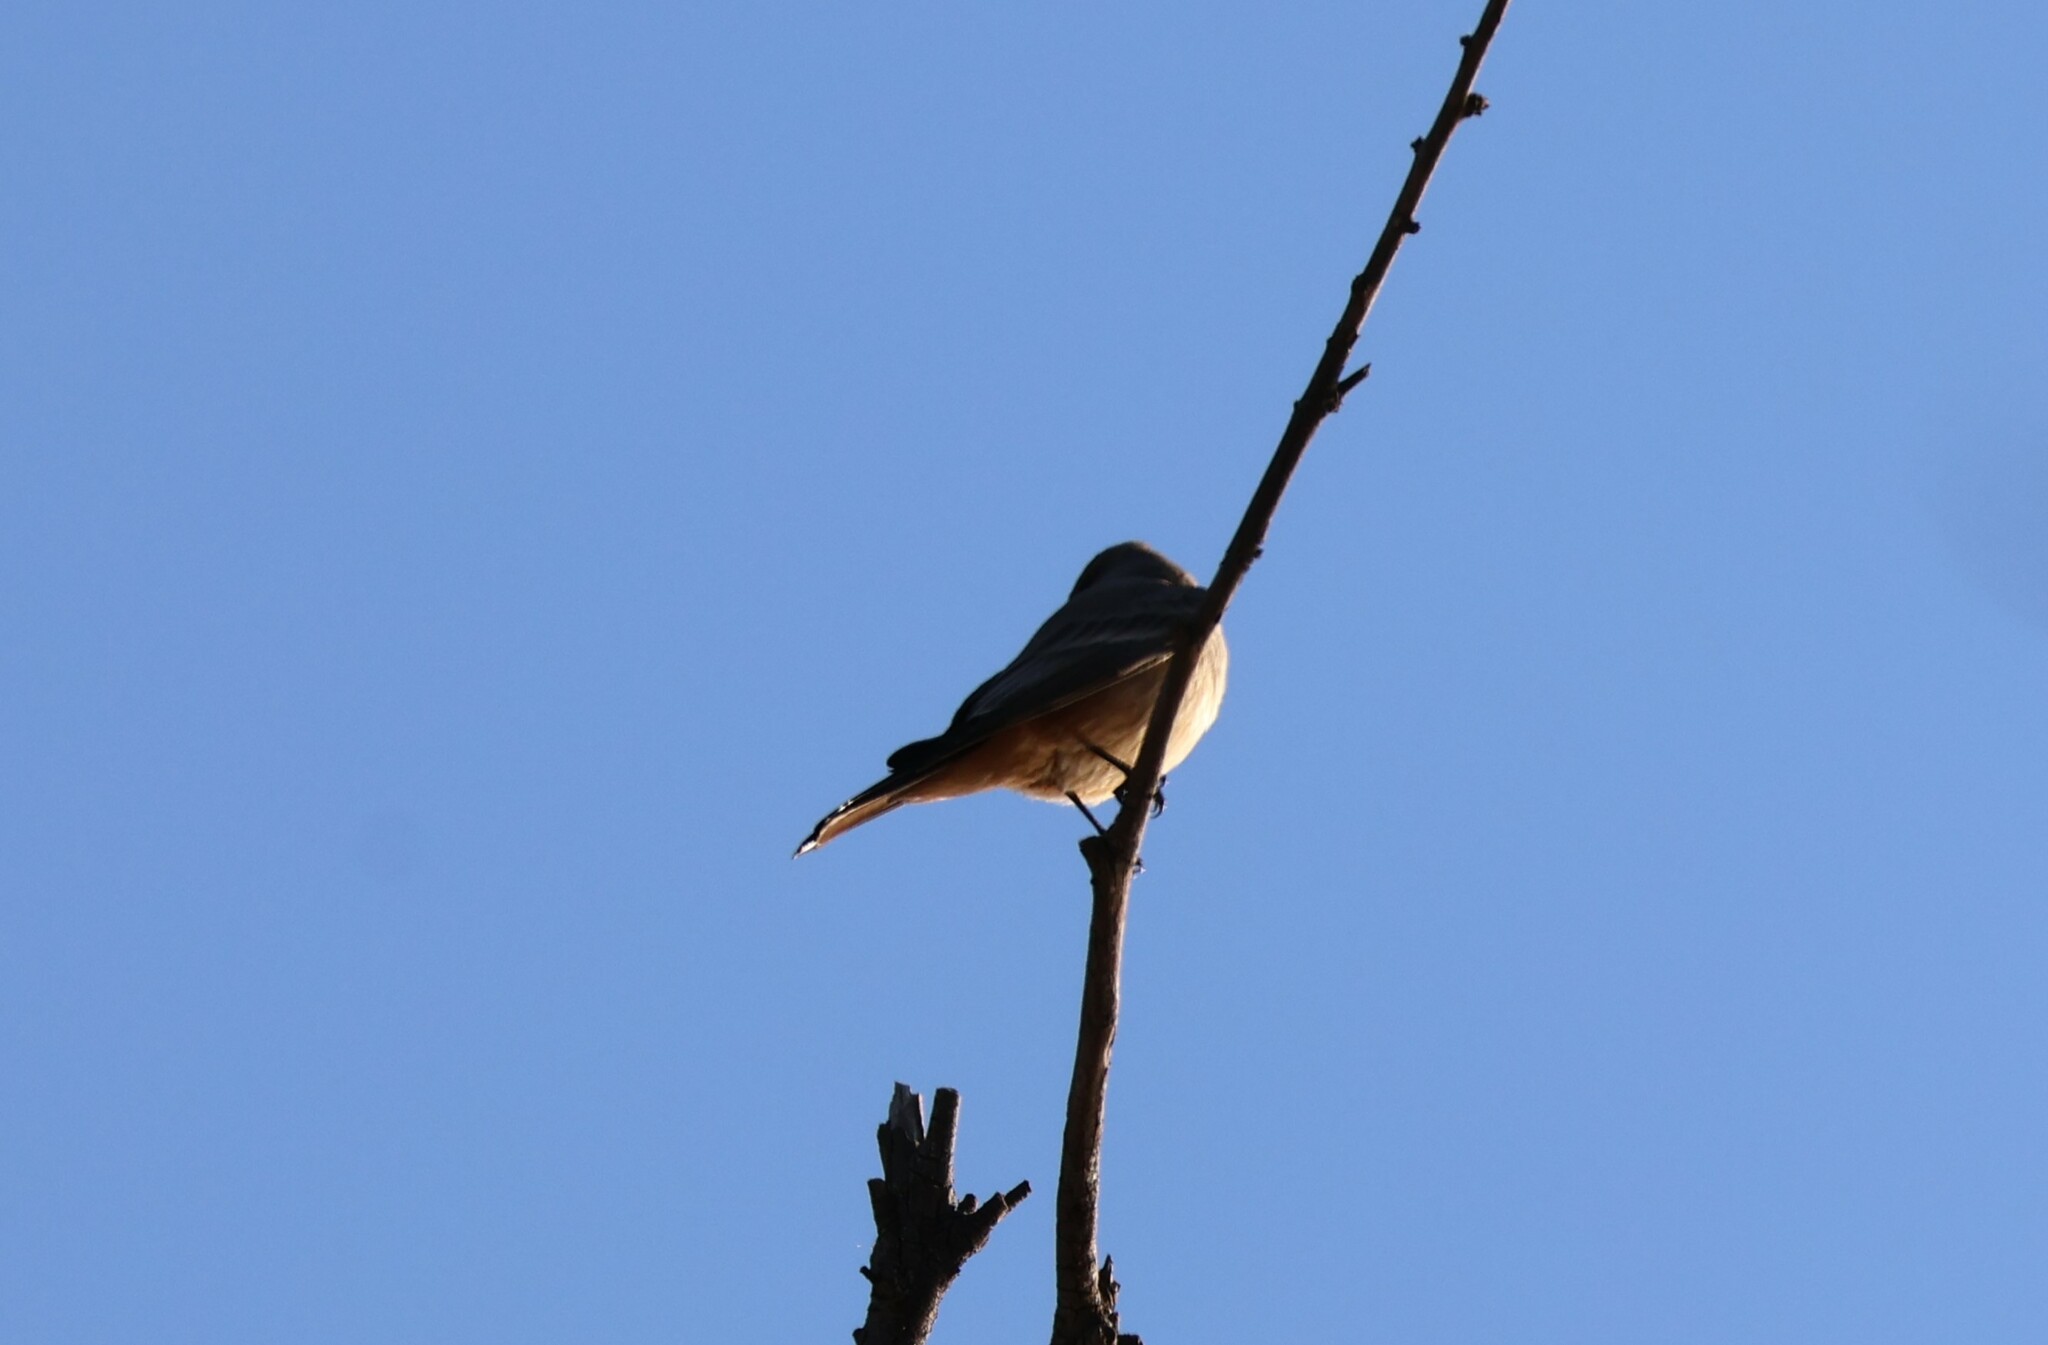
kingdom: Animalia
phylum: Chordata
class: Aves
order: Passeriformes
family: Tyrannidae
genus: Sayornis
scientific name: Sayornis saya
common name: Say's phoebe
